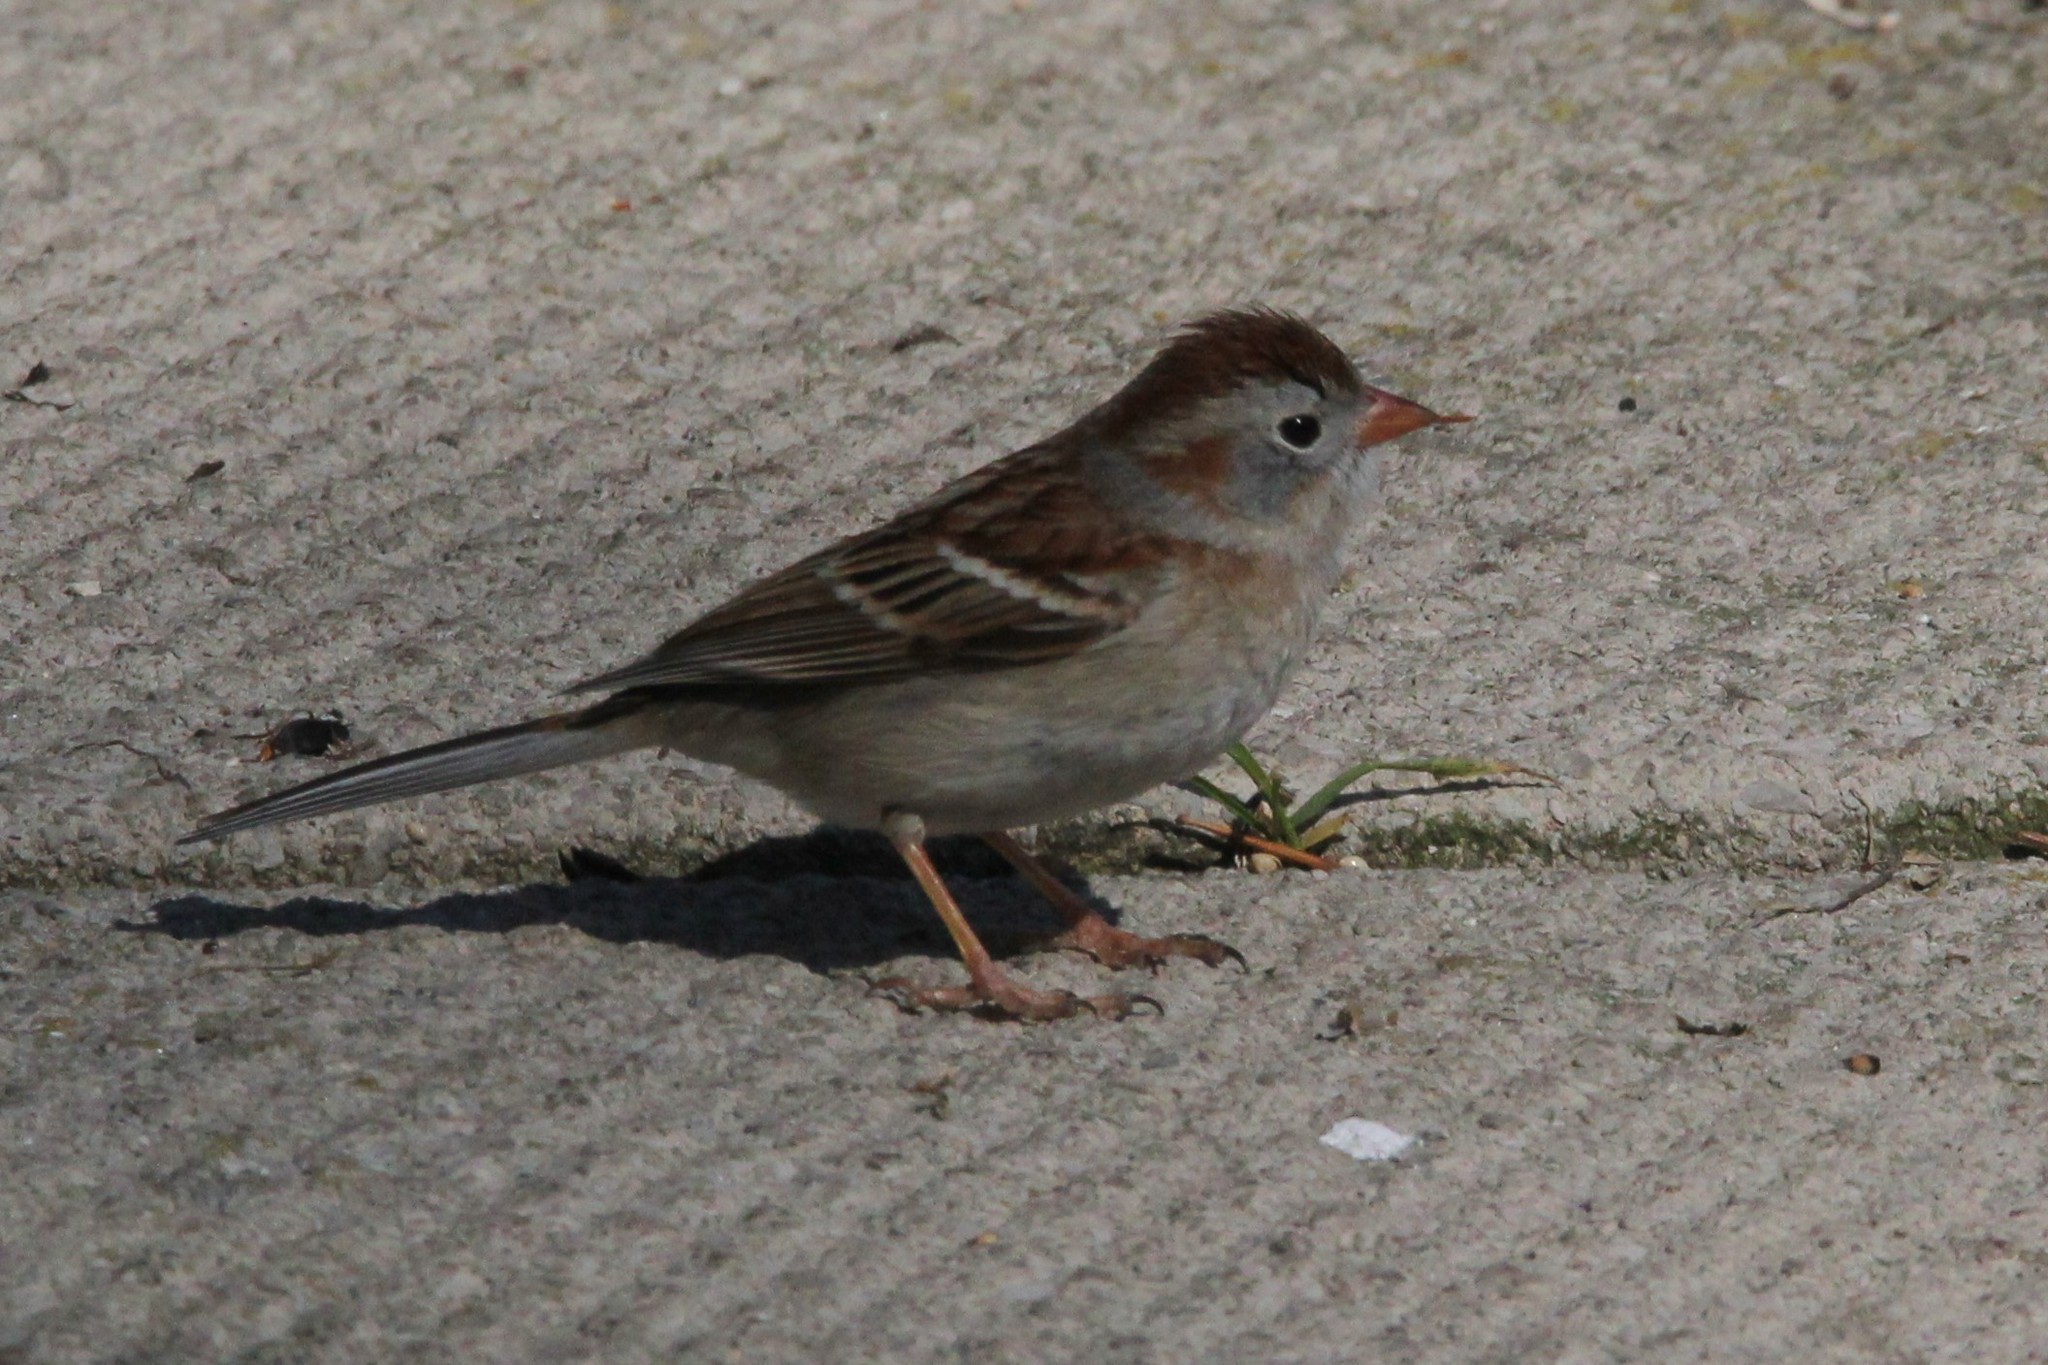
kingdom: Animalia
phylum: Chordata
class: Aves
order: Passeriformes
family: Passerellidae
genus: Spizella
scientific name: Spizella pusilla
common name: Field sparrow
